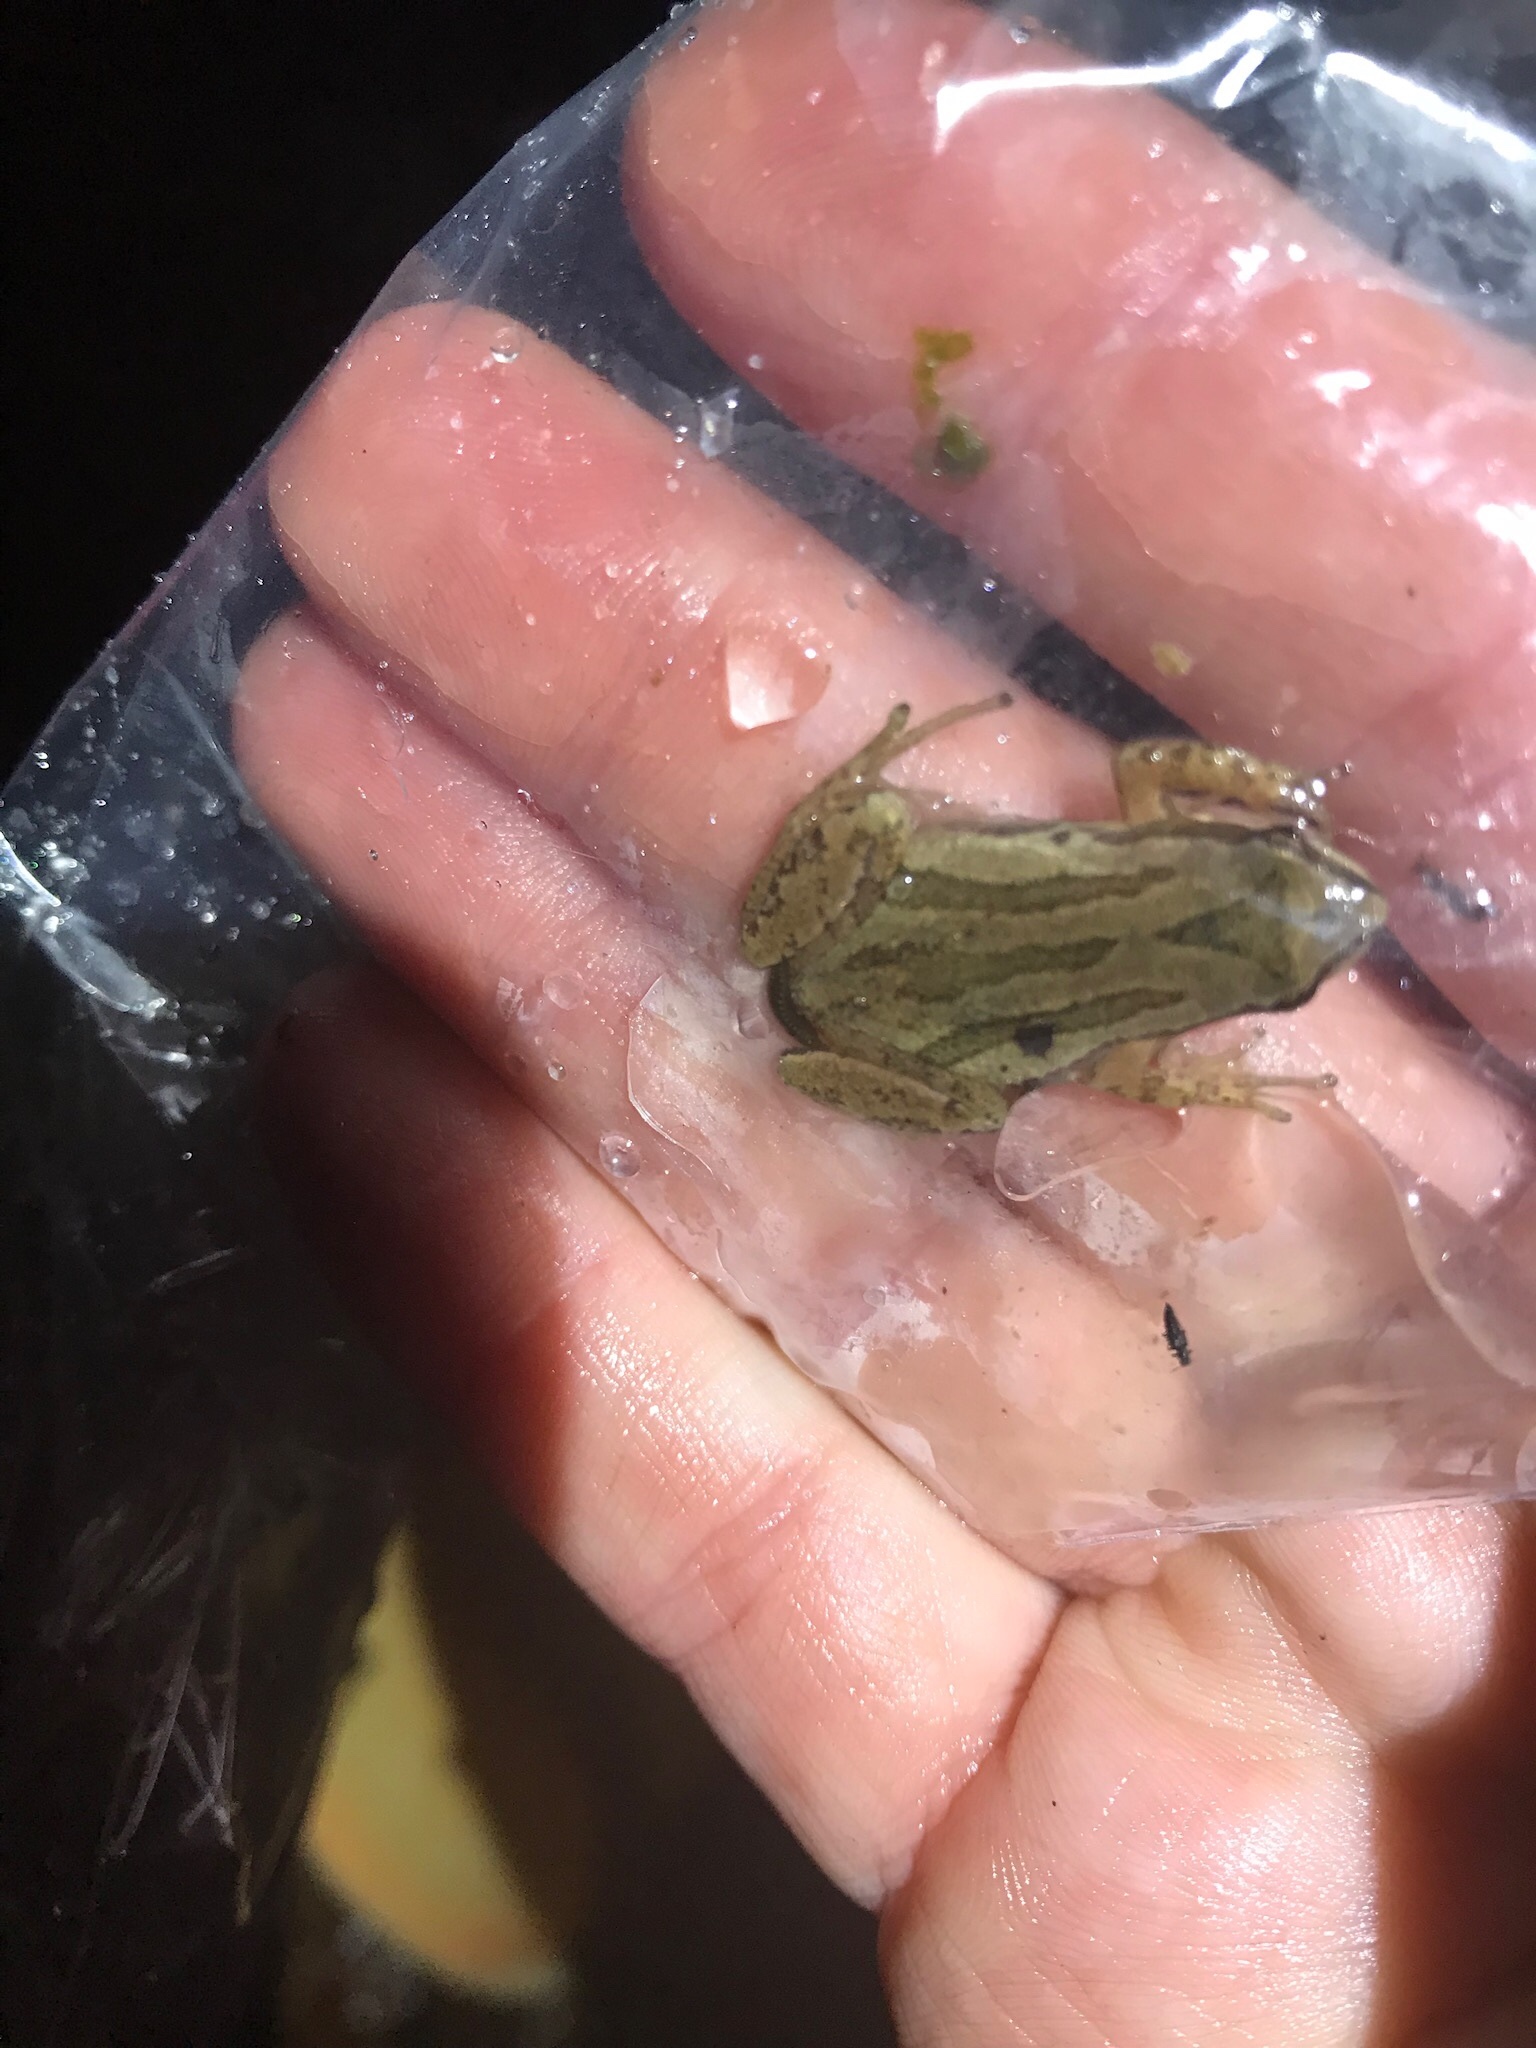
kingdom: Animalia
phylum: Chordata
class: Amphibia
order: Anura
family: Hylidae
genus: Pseudacris
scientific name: Pseudacris triseriata
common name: Western chorus frog
